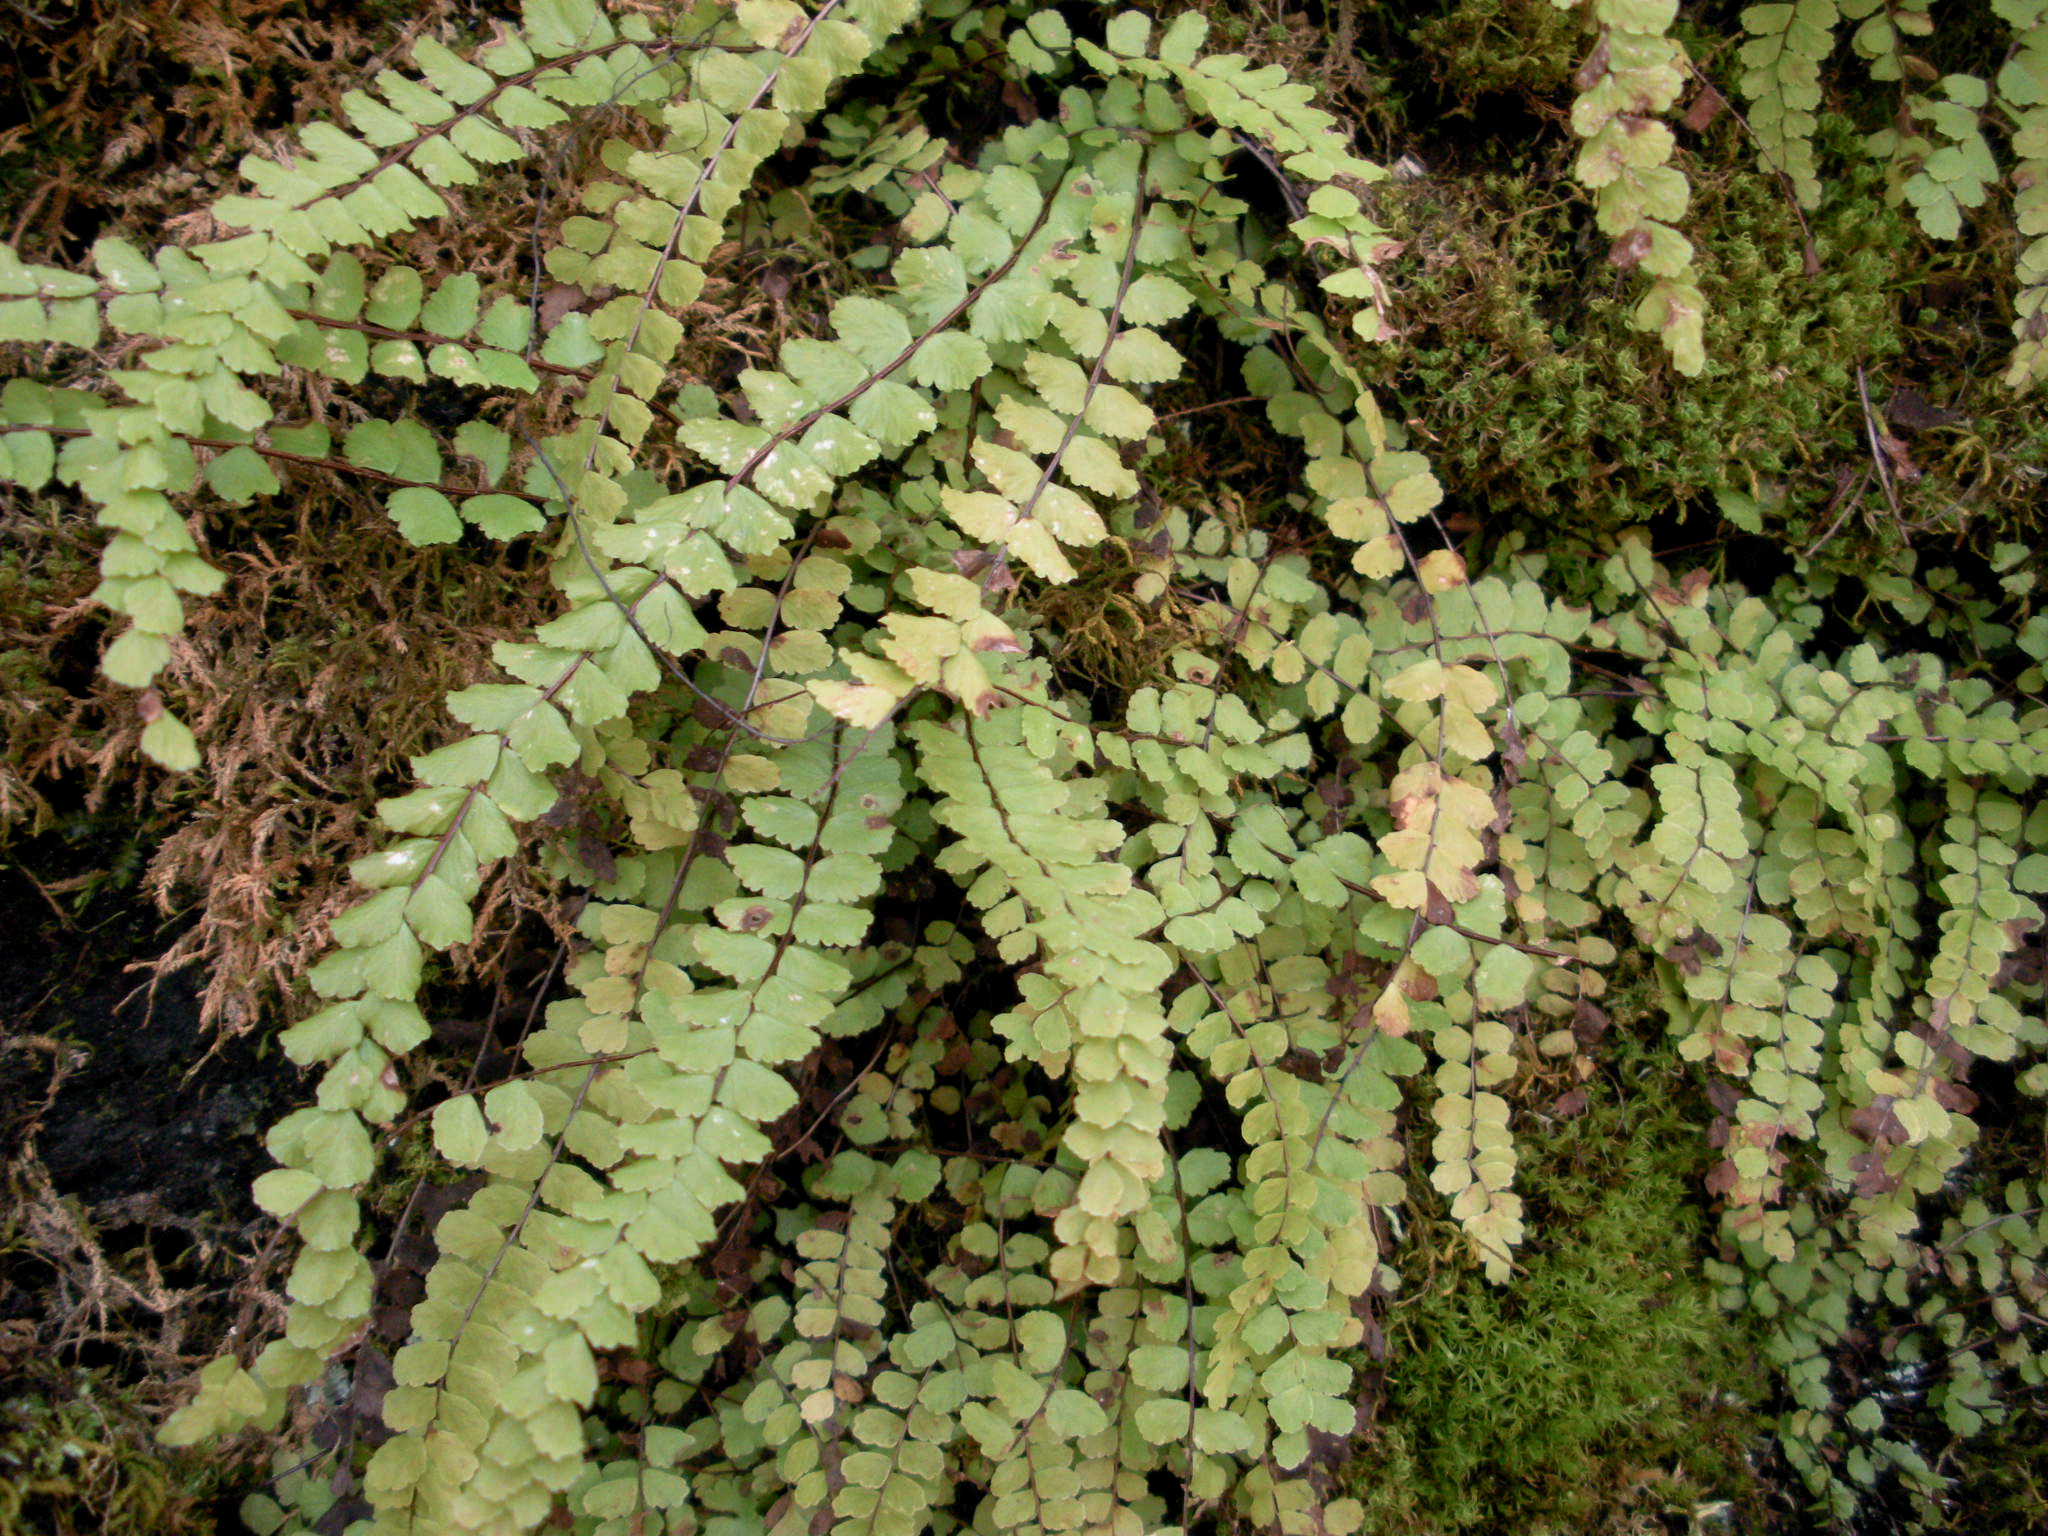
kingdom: Plantae
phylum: Tracheophyta
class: Polypodiopsida
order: Polypodiales
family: Aspleniaceae
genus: Asplenium
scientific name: Asplenium trichomanes
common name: Maidenhair spleenwort
